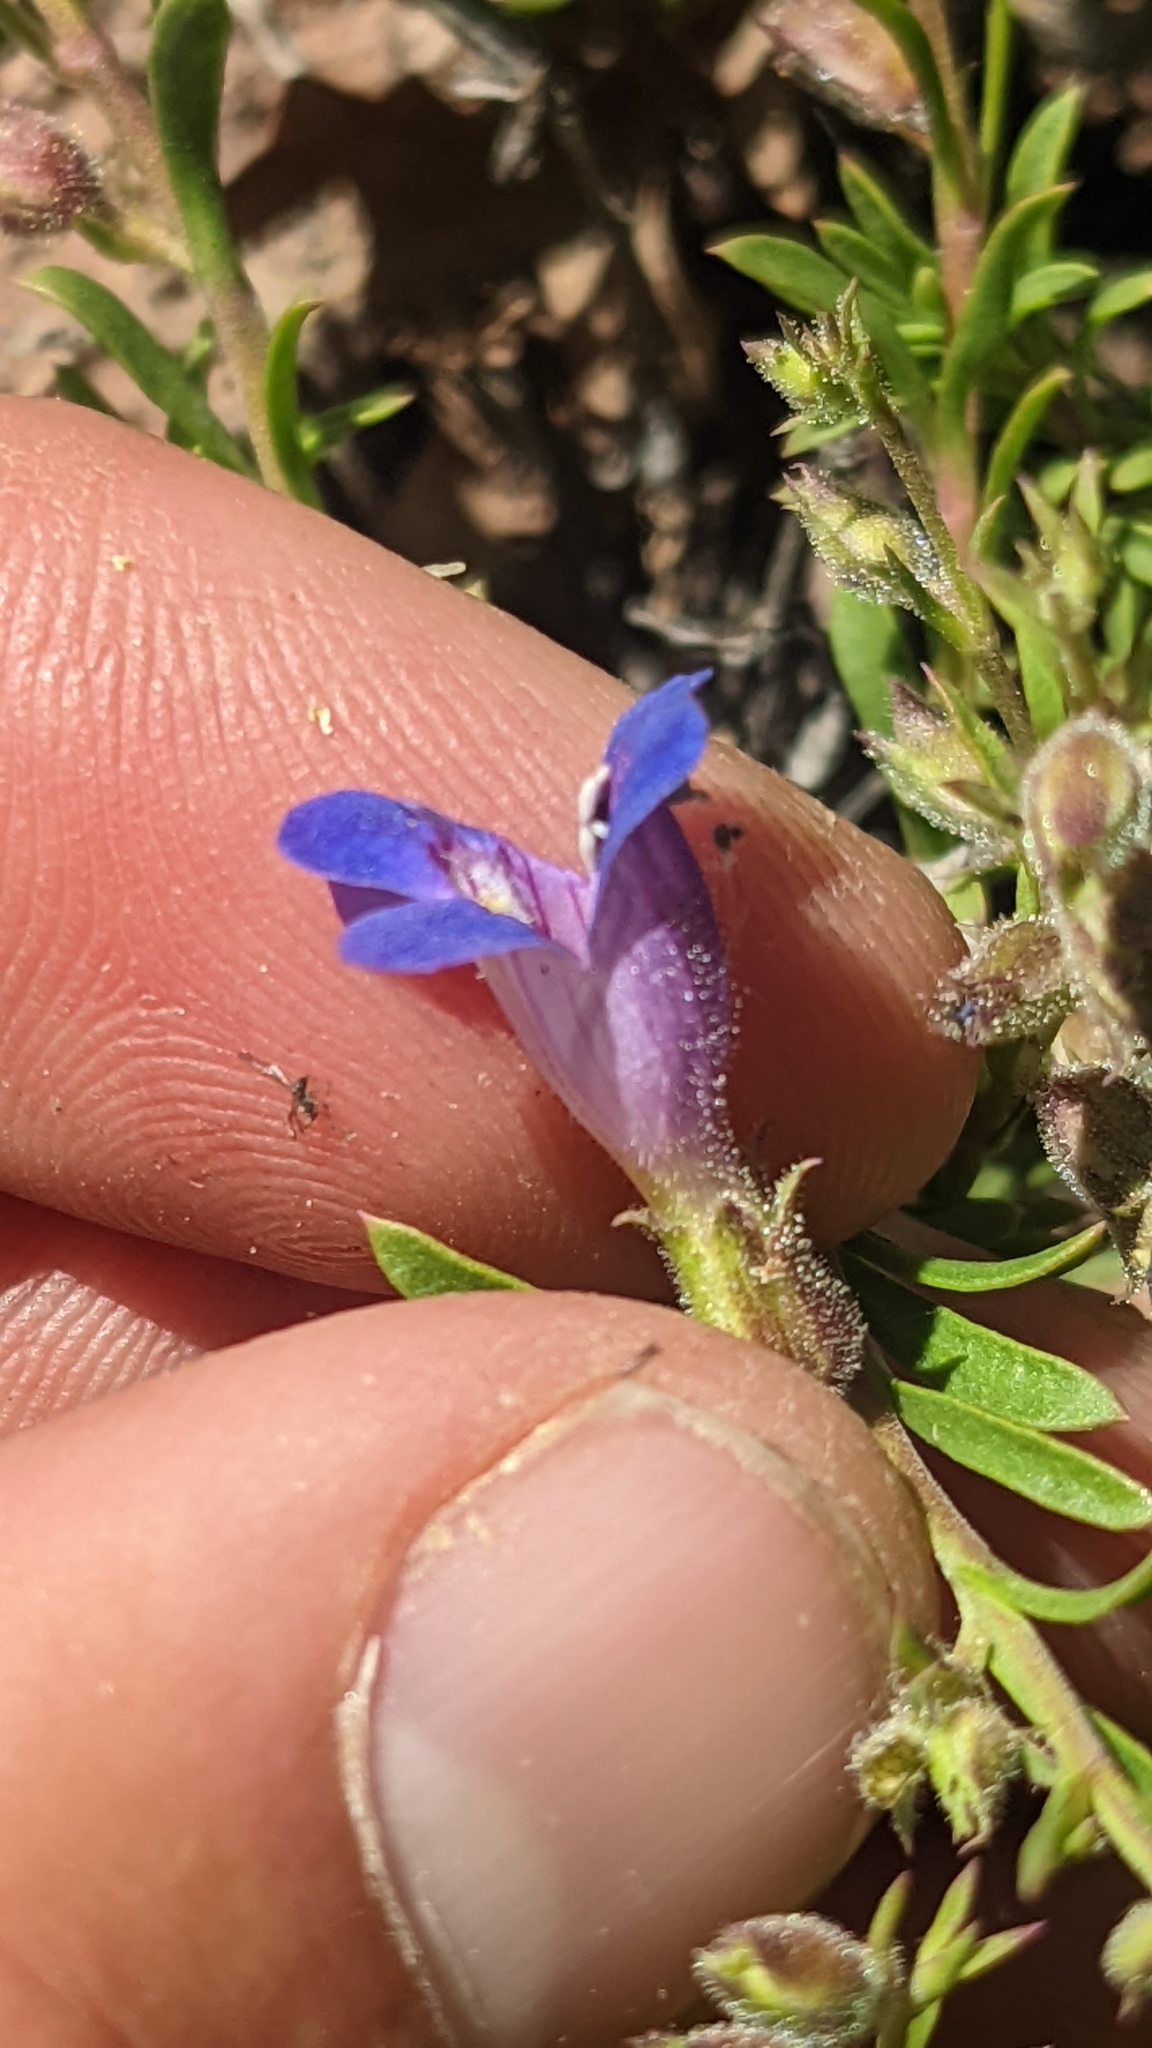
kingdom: Plantae
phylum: Tracheophyta
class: Magnoliopsida
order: Lamiales
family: Plantaginaceae
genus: Penstemon
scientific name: Penstemon linarioides
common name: Siler's penstemon
